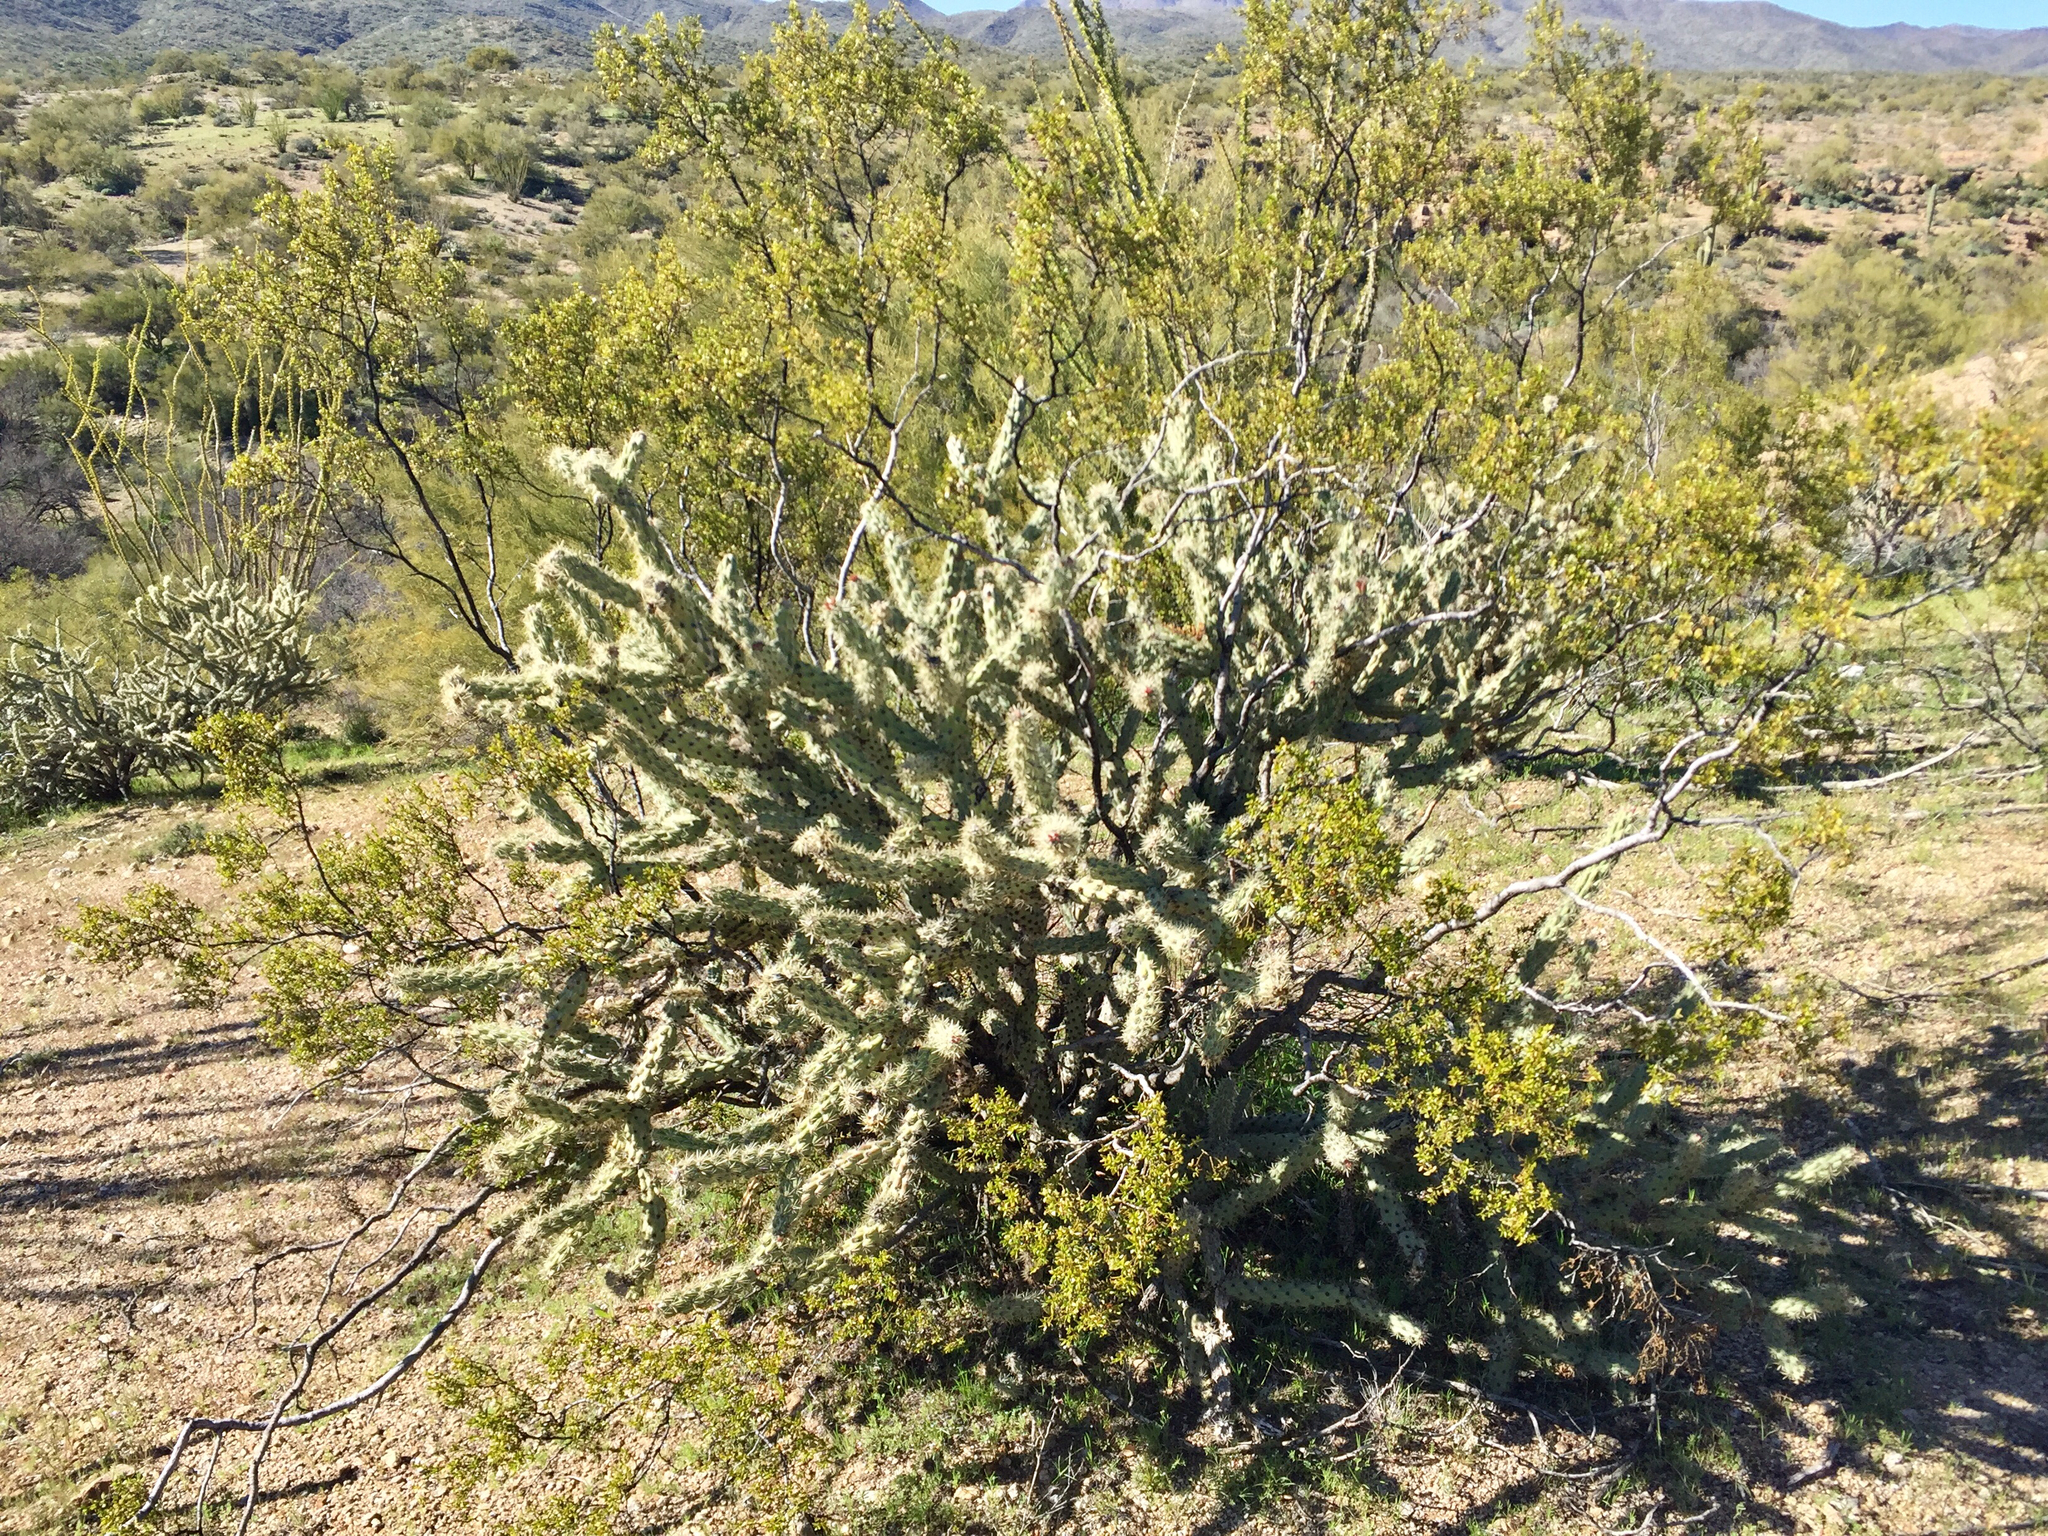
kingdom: Plantae
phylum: Tracheophyta
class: Magnoliopsida
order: Zygophyllales
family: Zygophyllaceae
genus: Larrea
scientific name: Larrea tridentata
